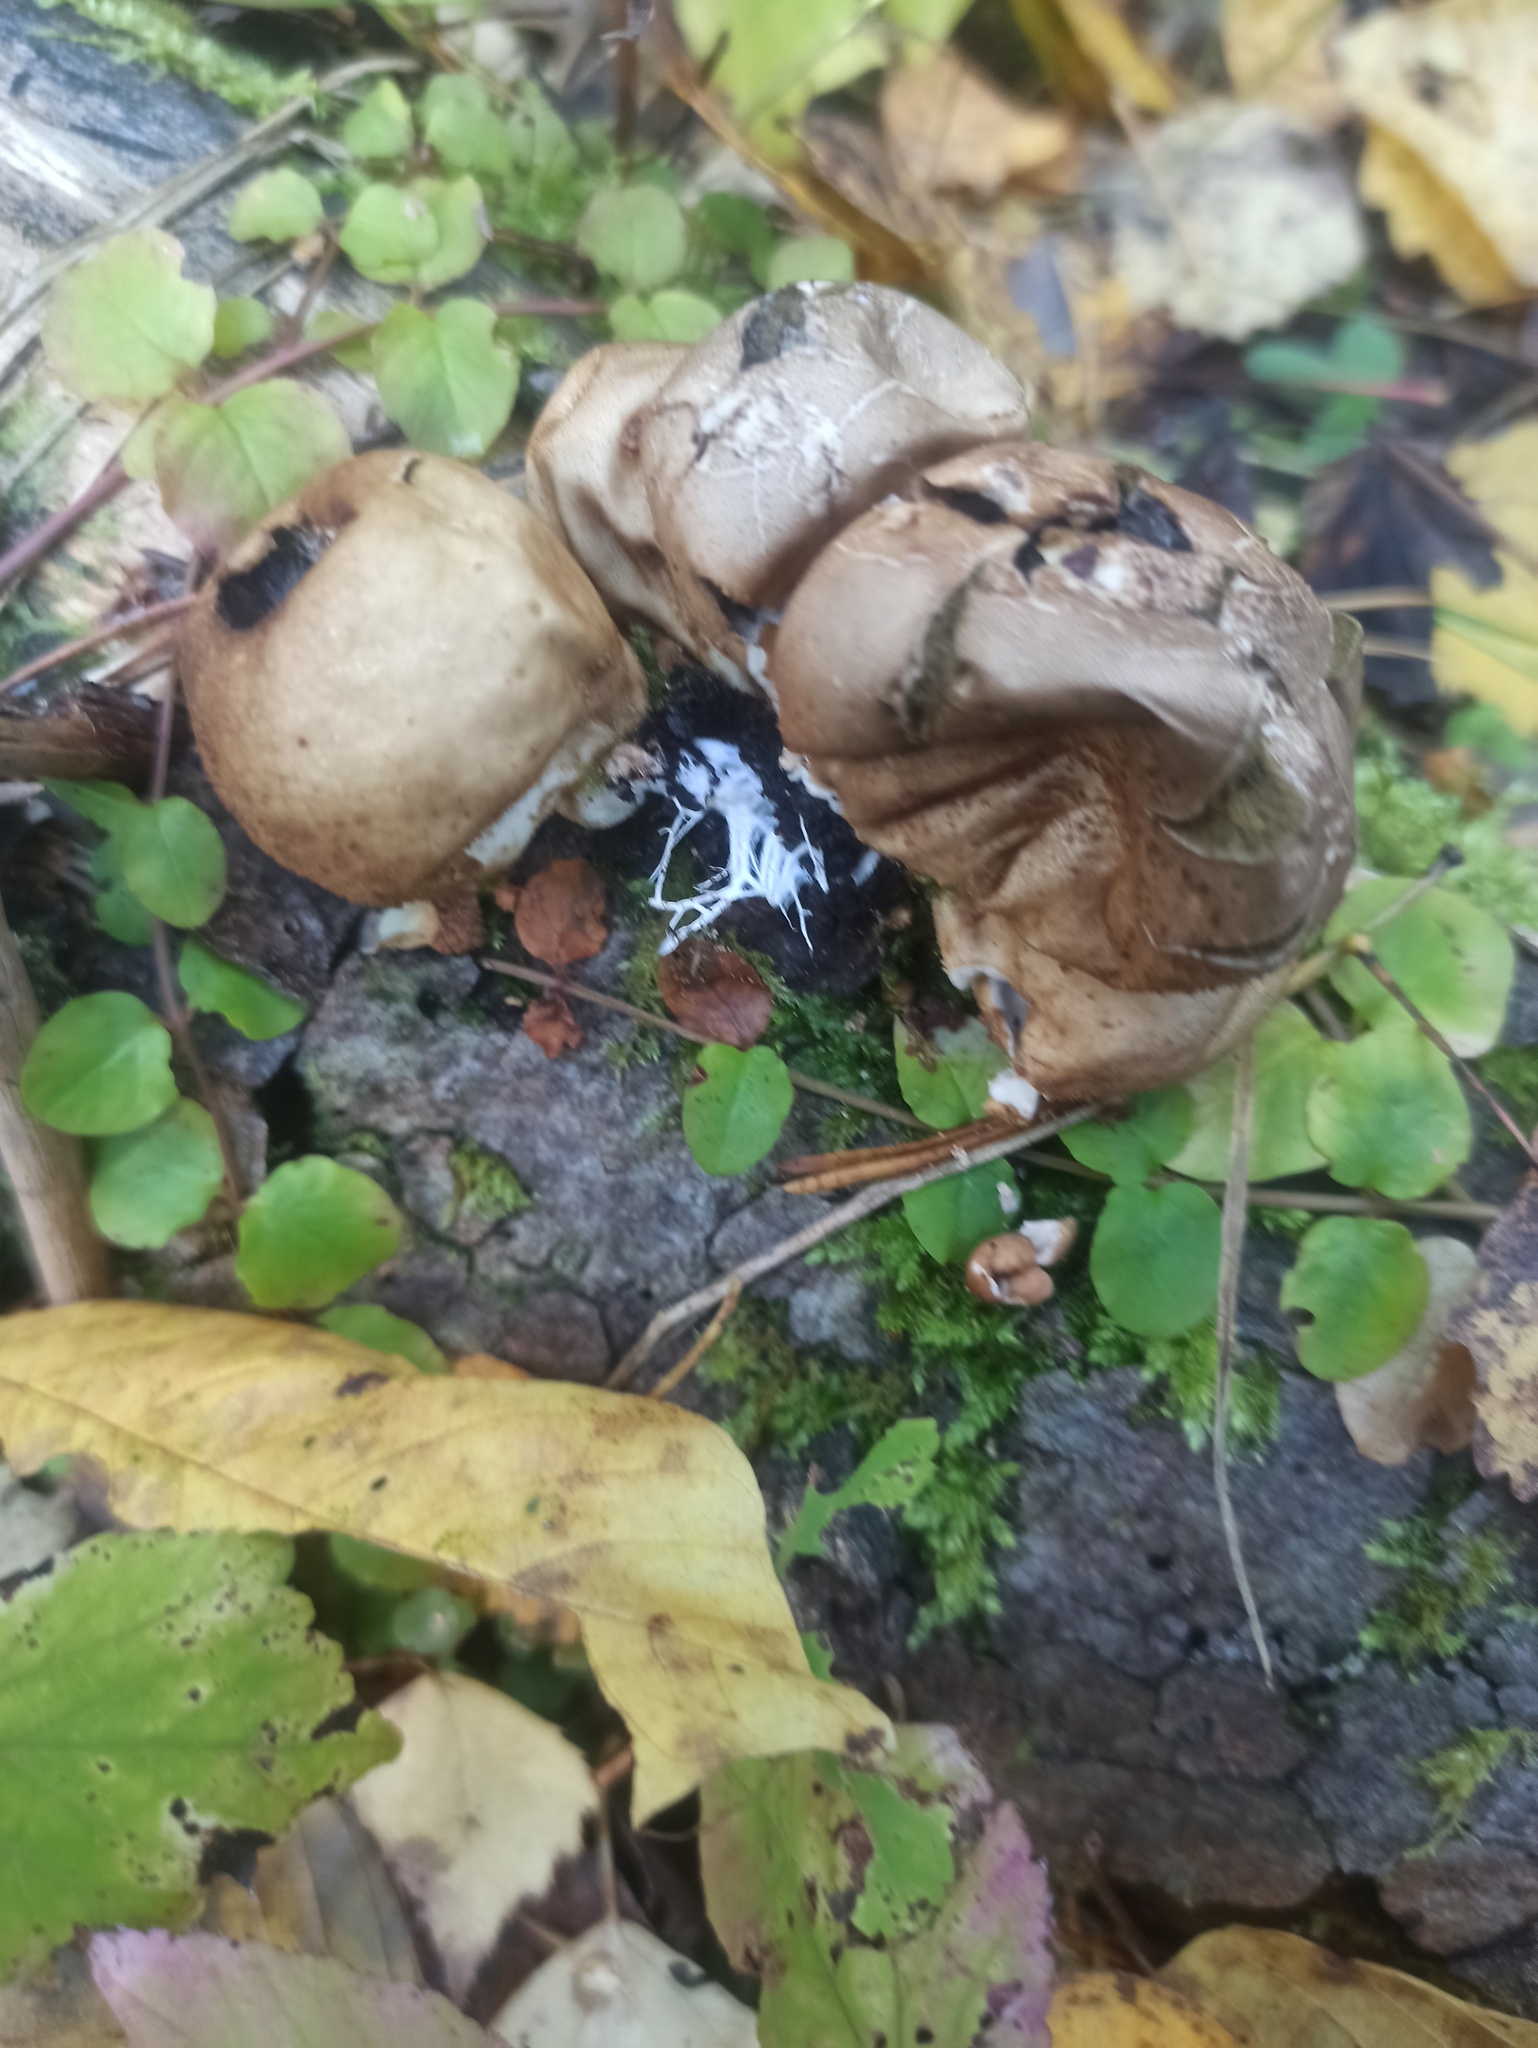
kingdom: Fungi
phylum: Basidiomycota
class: Agaricomycetes
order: Agaricales
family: Lycoperdaceae
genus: Apioperdon
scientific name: Apioperdon pyriforme
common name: Pear-shaped puffball
